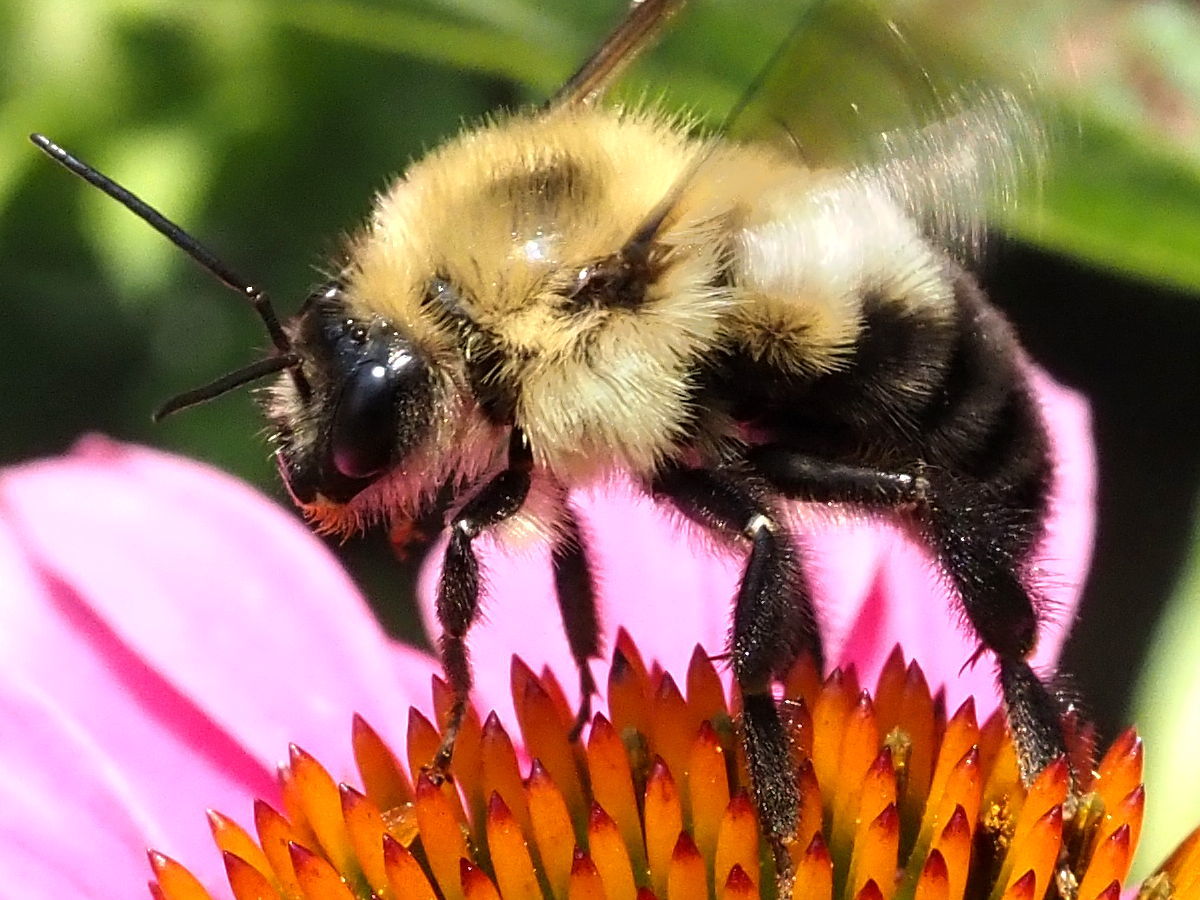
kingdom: Animalia
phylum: Arthropoda
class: Insecta
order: Hymenoptera
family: Apidae
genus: Bombus
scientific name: Bombus bimaculatus
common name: Two-spotted bumble bee
